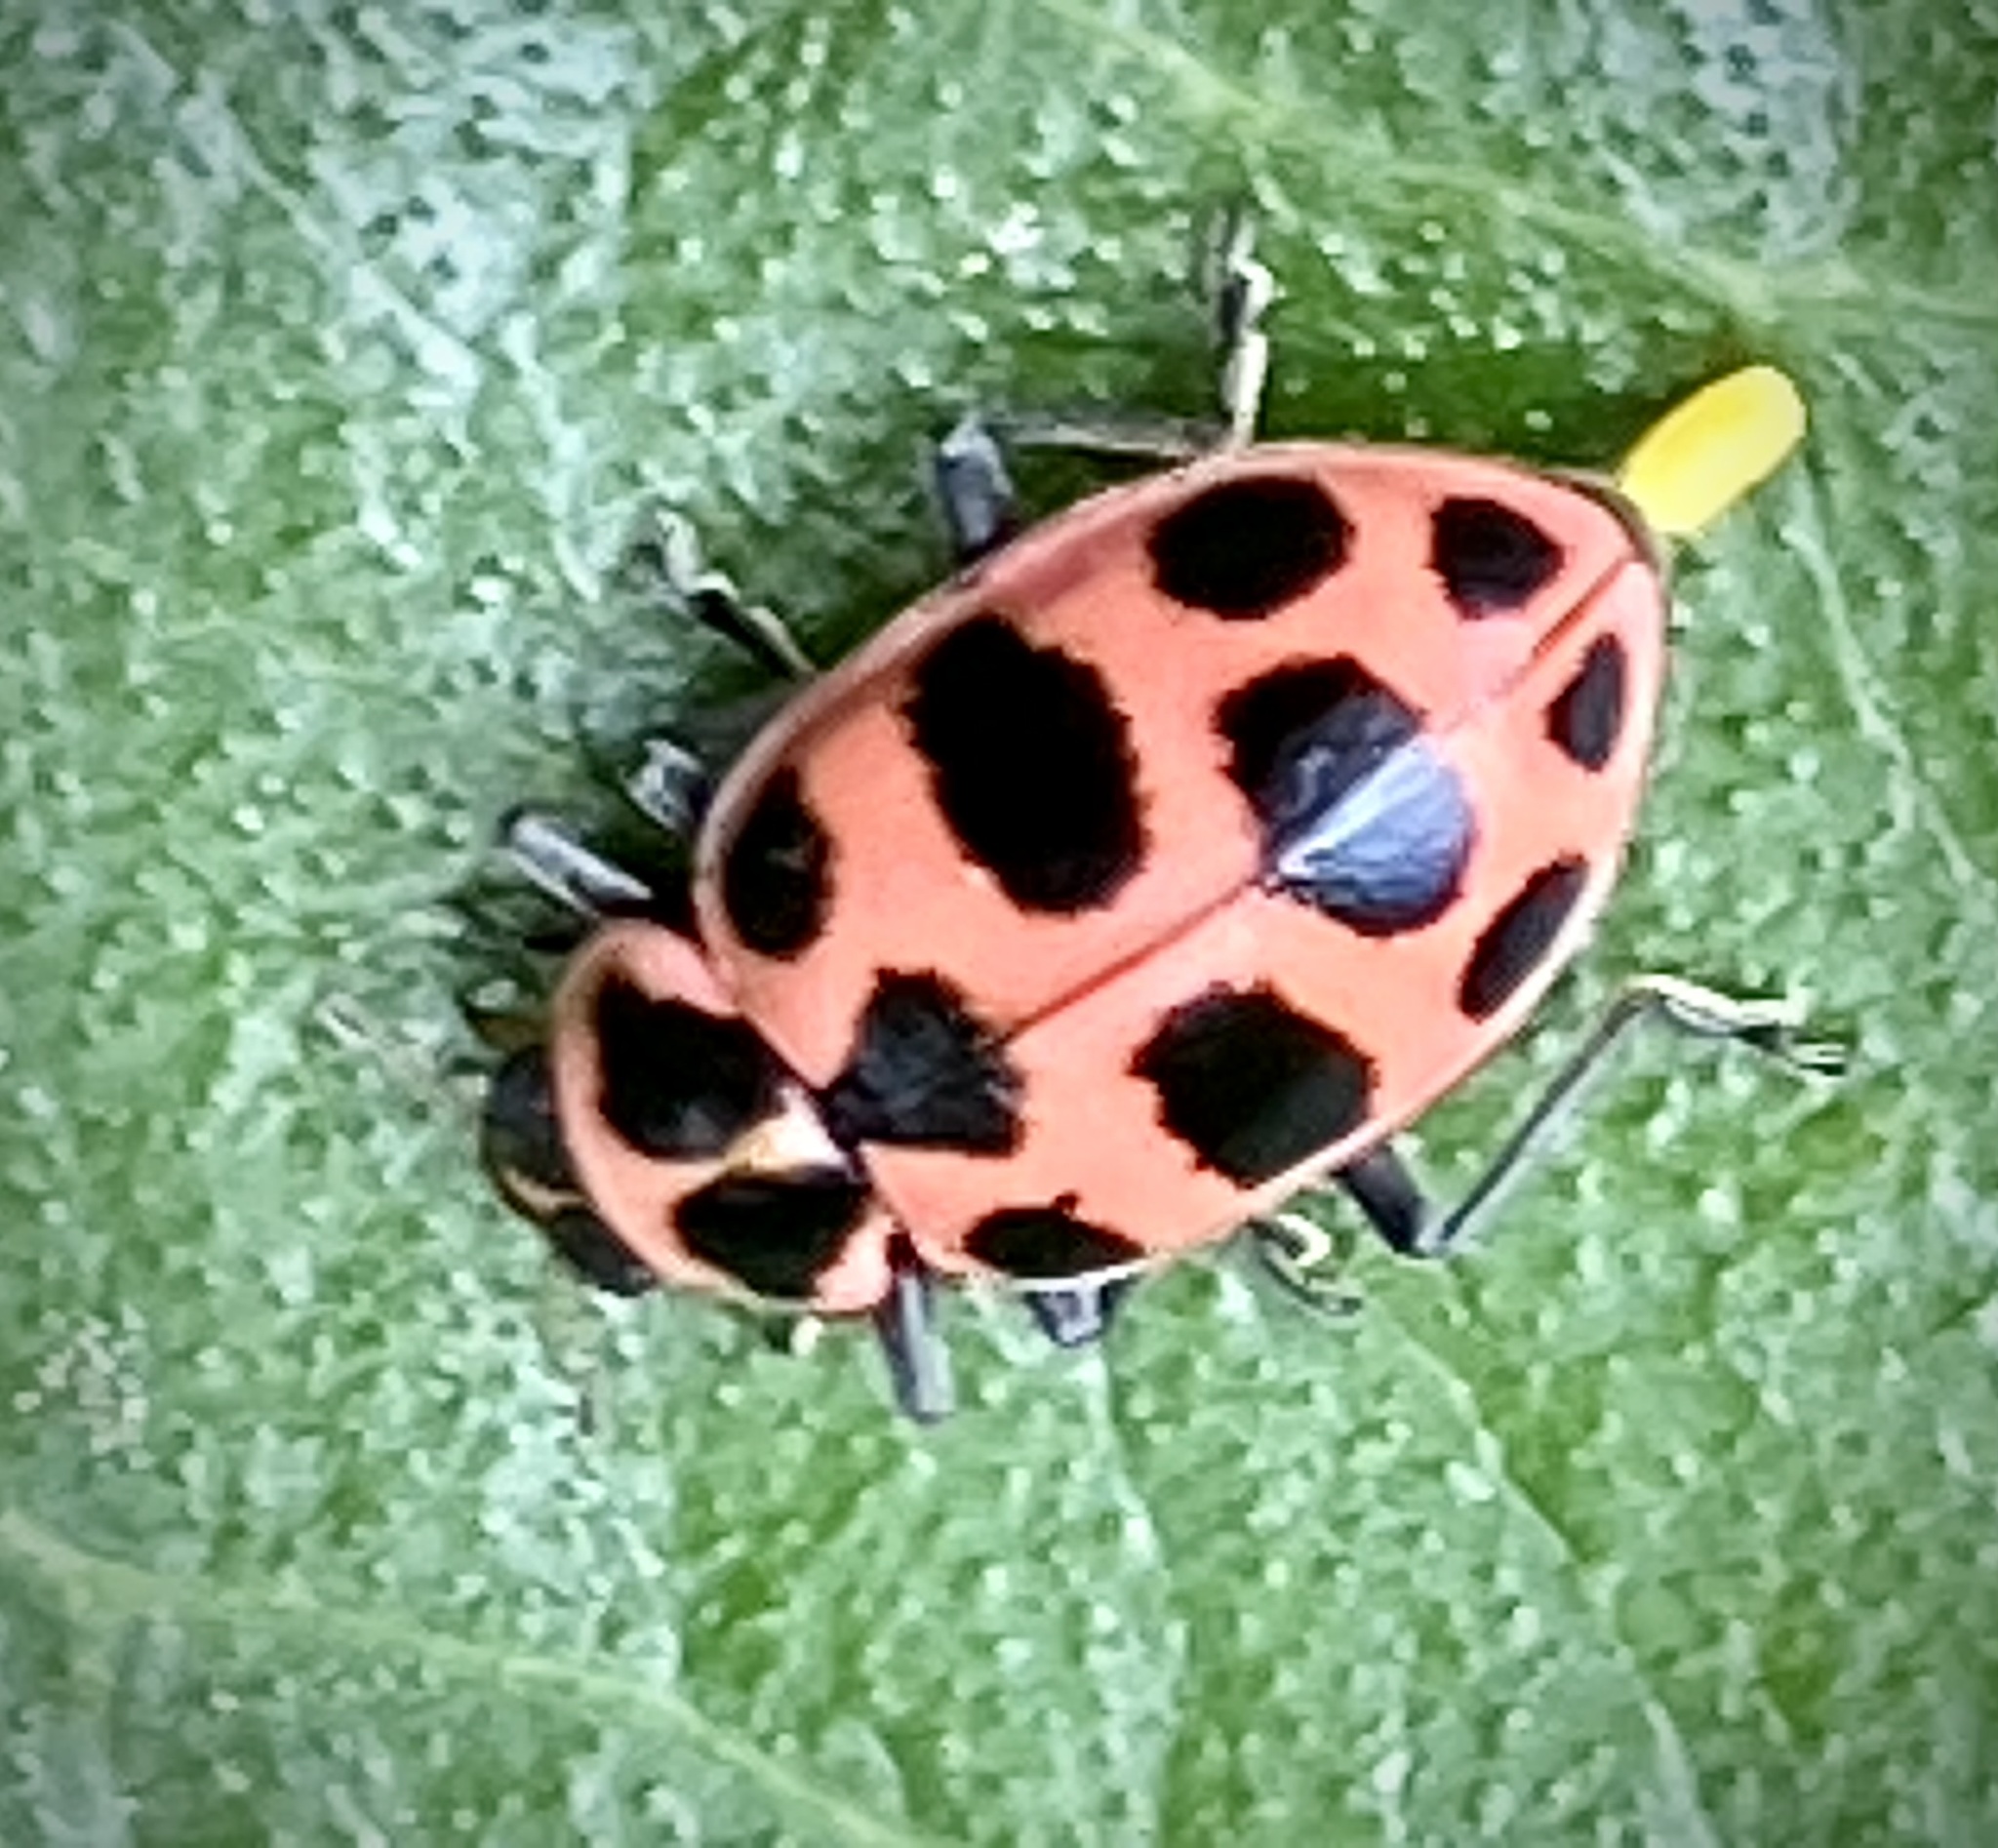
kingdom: Animalia
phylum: Arthropoda
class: Insecta
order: Coleoptera
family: Coccinellidae
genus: Coleomegilla
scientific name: Coleomegilla maculata
